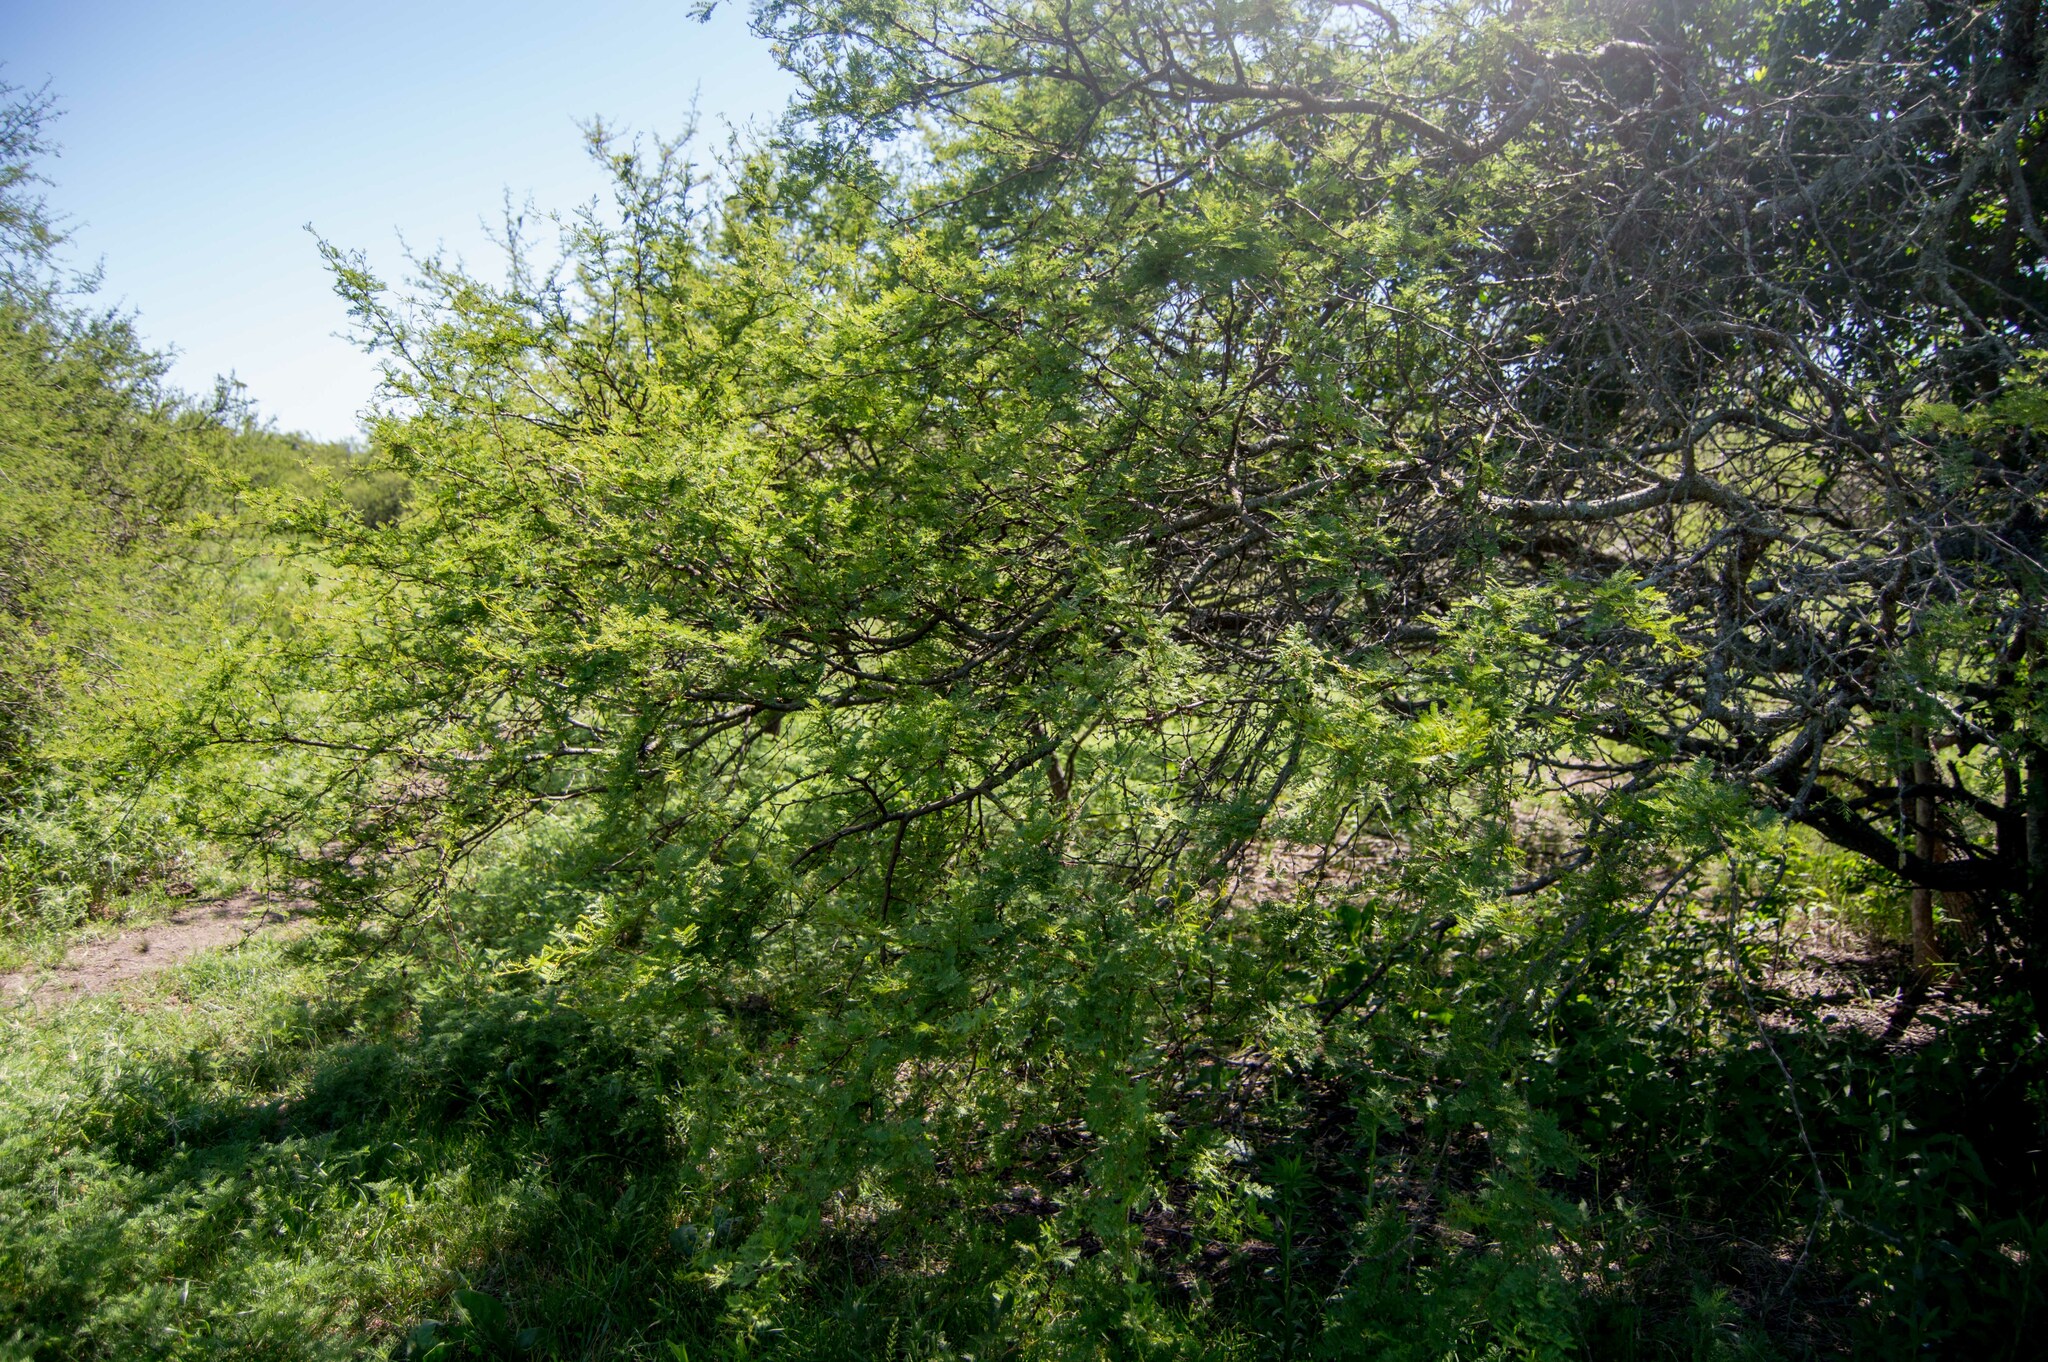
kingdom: Plantae
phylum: Tracheophyta
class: Magnoliopsida
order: Fabales
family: Fabaceae
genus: Vachellia
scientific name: Vachellia caven
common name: Roman cassie
